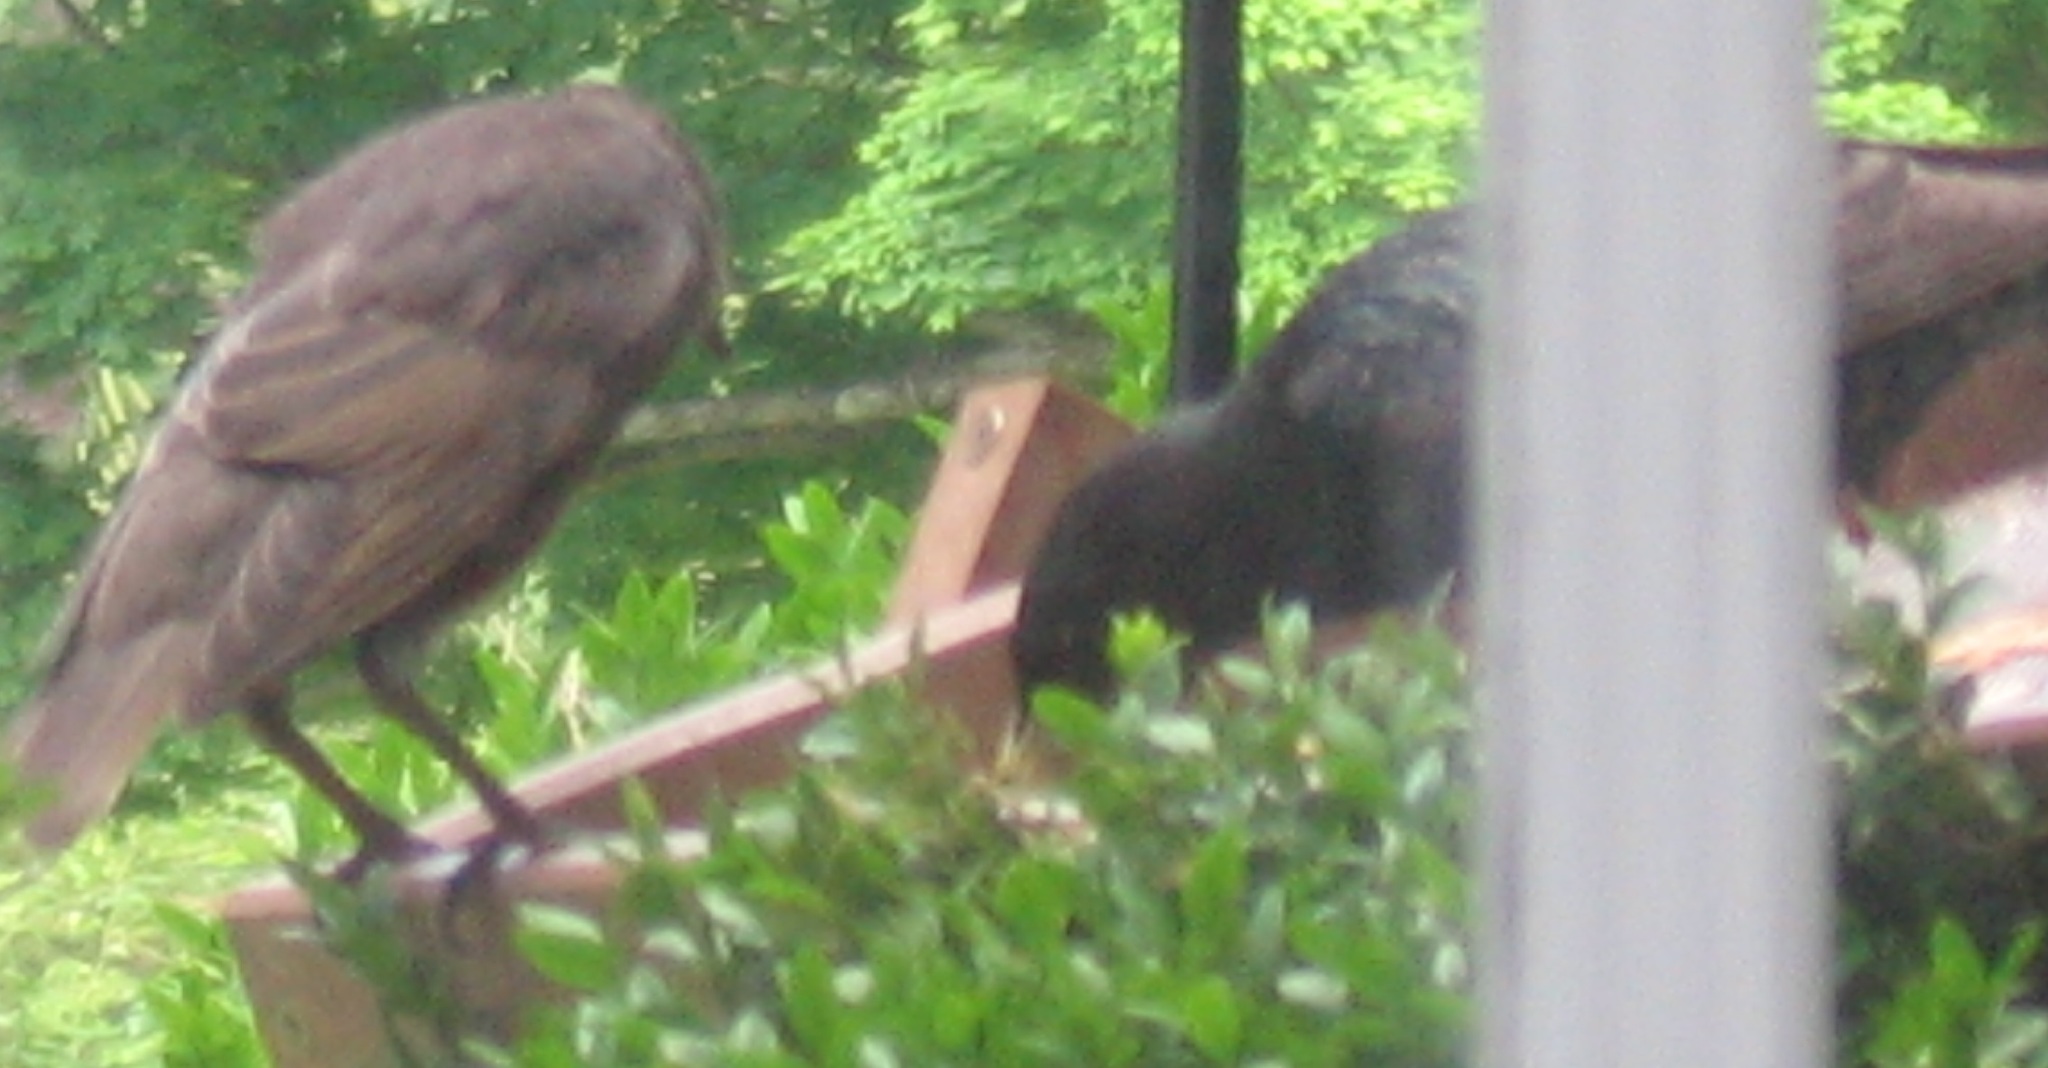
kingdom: Animalia
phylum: Chordata
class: Aves
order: Passeriformes
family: Sturnidae
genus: Sturnus
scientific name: Sturnus vulgaris
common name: Common starling
